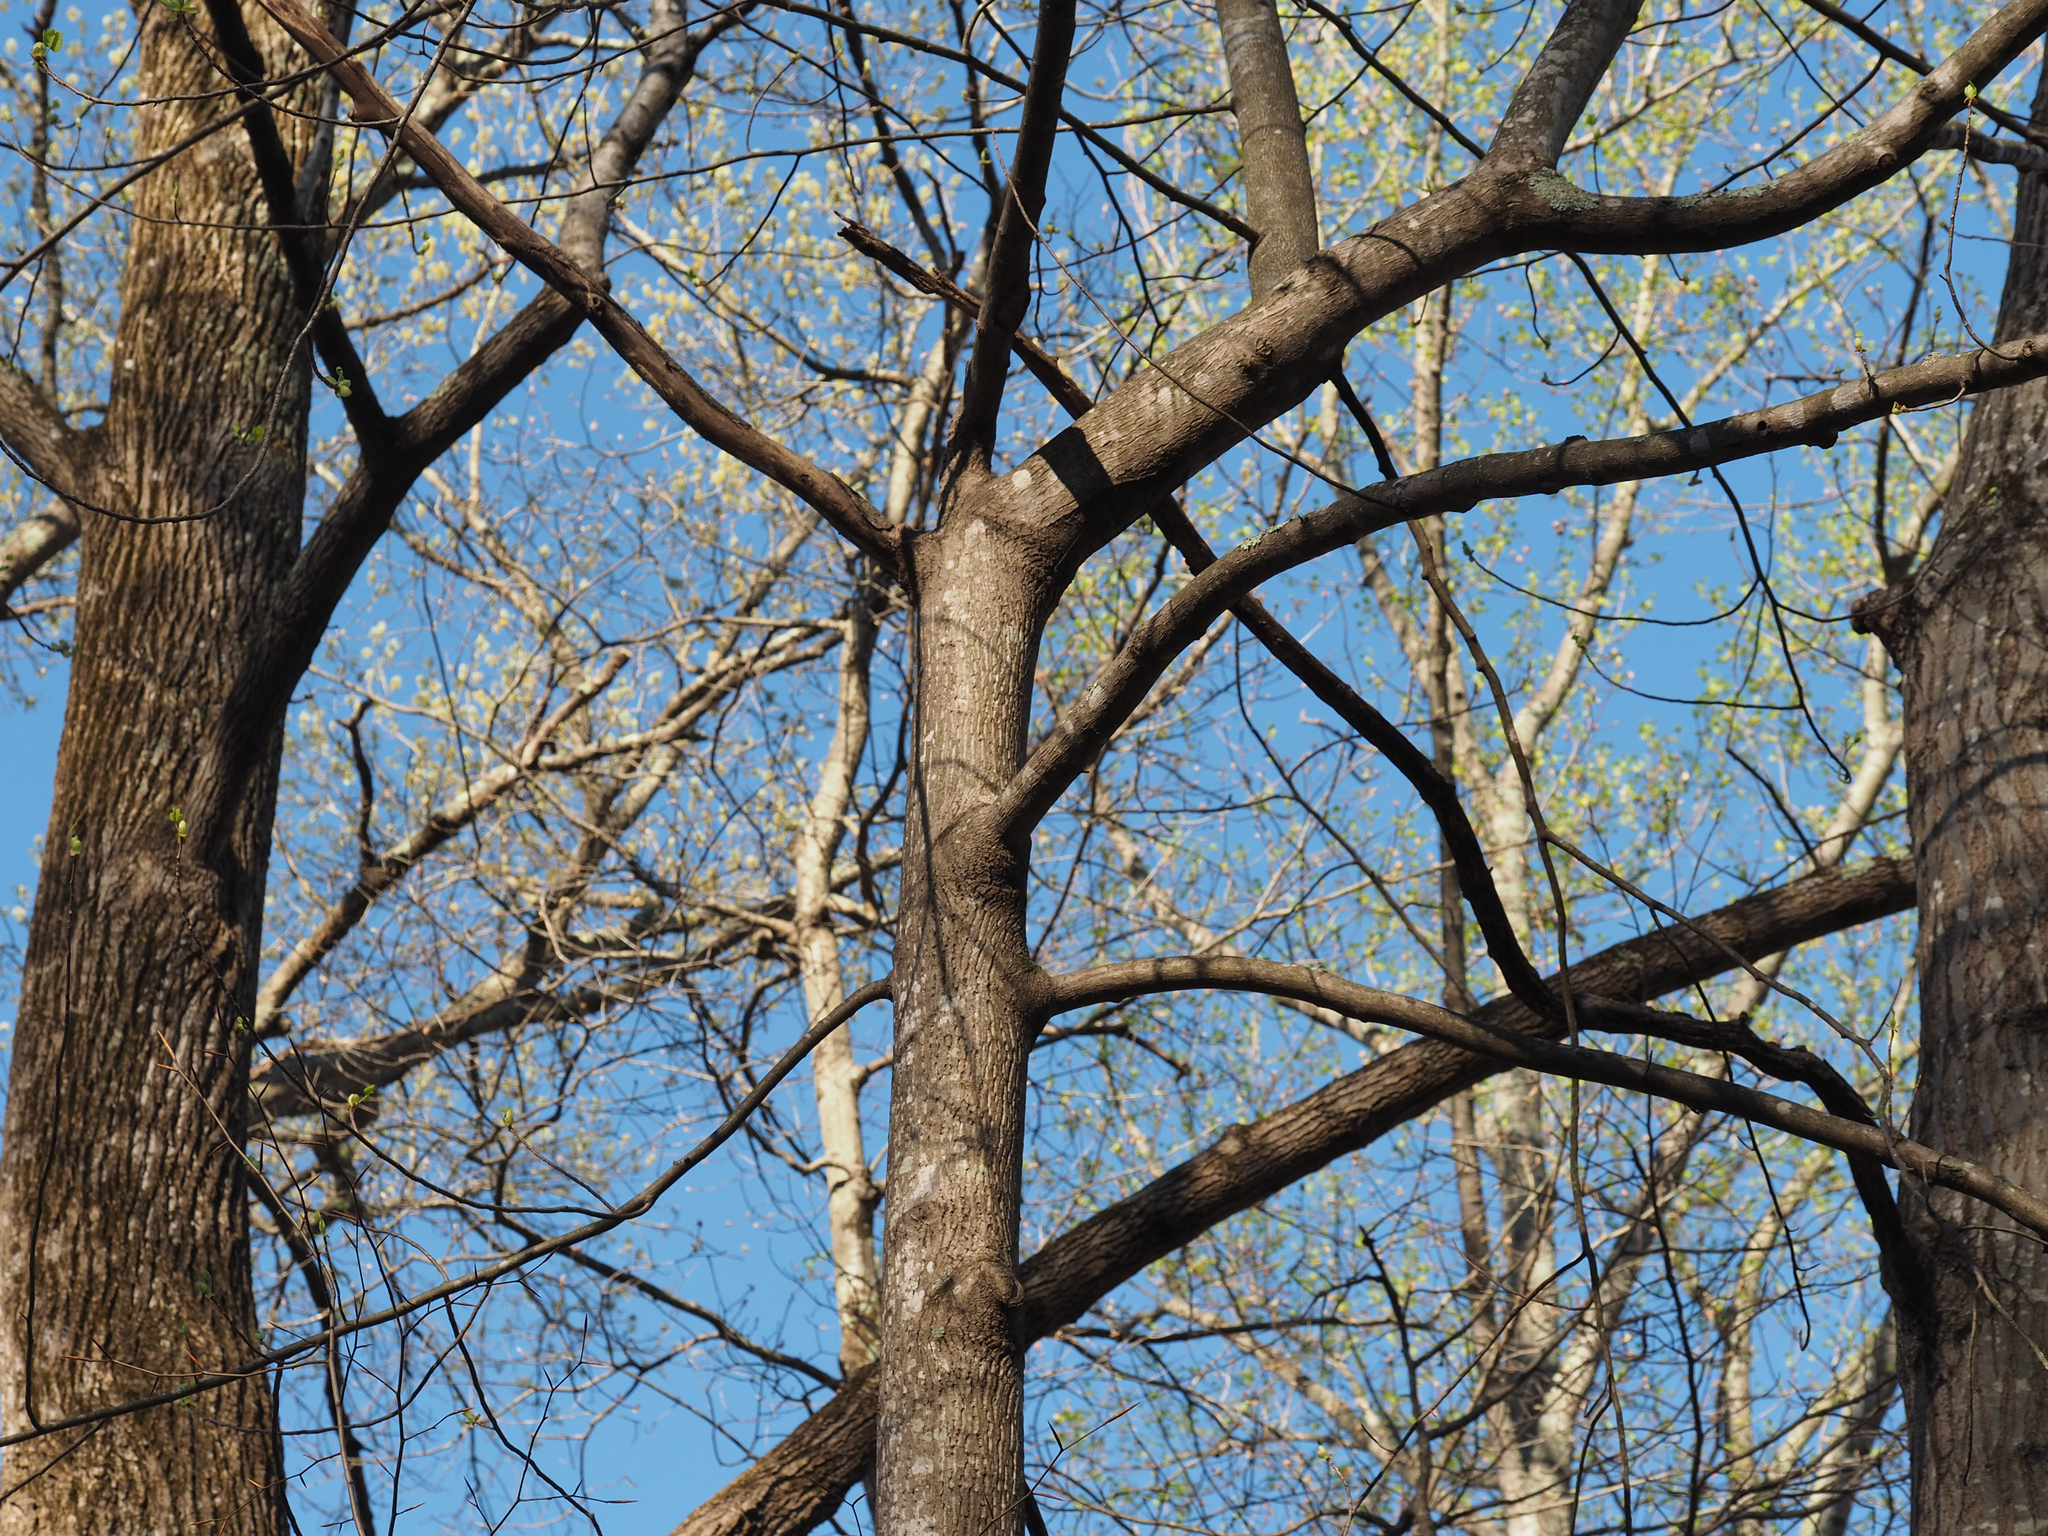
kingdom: Plantae
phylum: Tracheophyta
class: Magnoliopsida
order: Magnoliales
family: Magnoliaceae
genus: Liriodendron
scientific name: Liriodendron tulipifera
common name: Tulip tree
